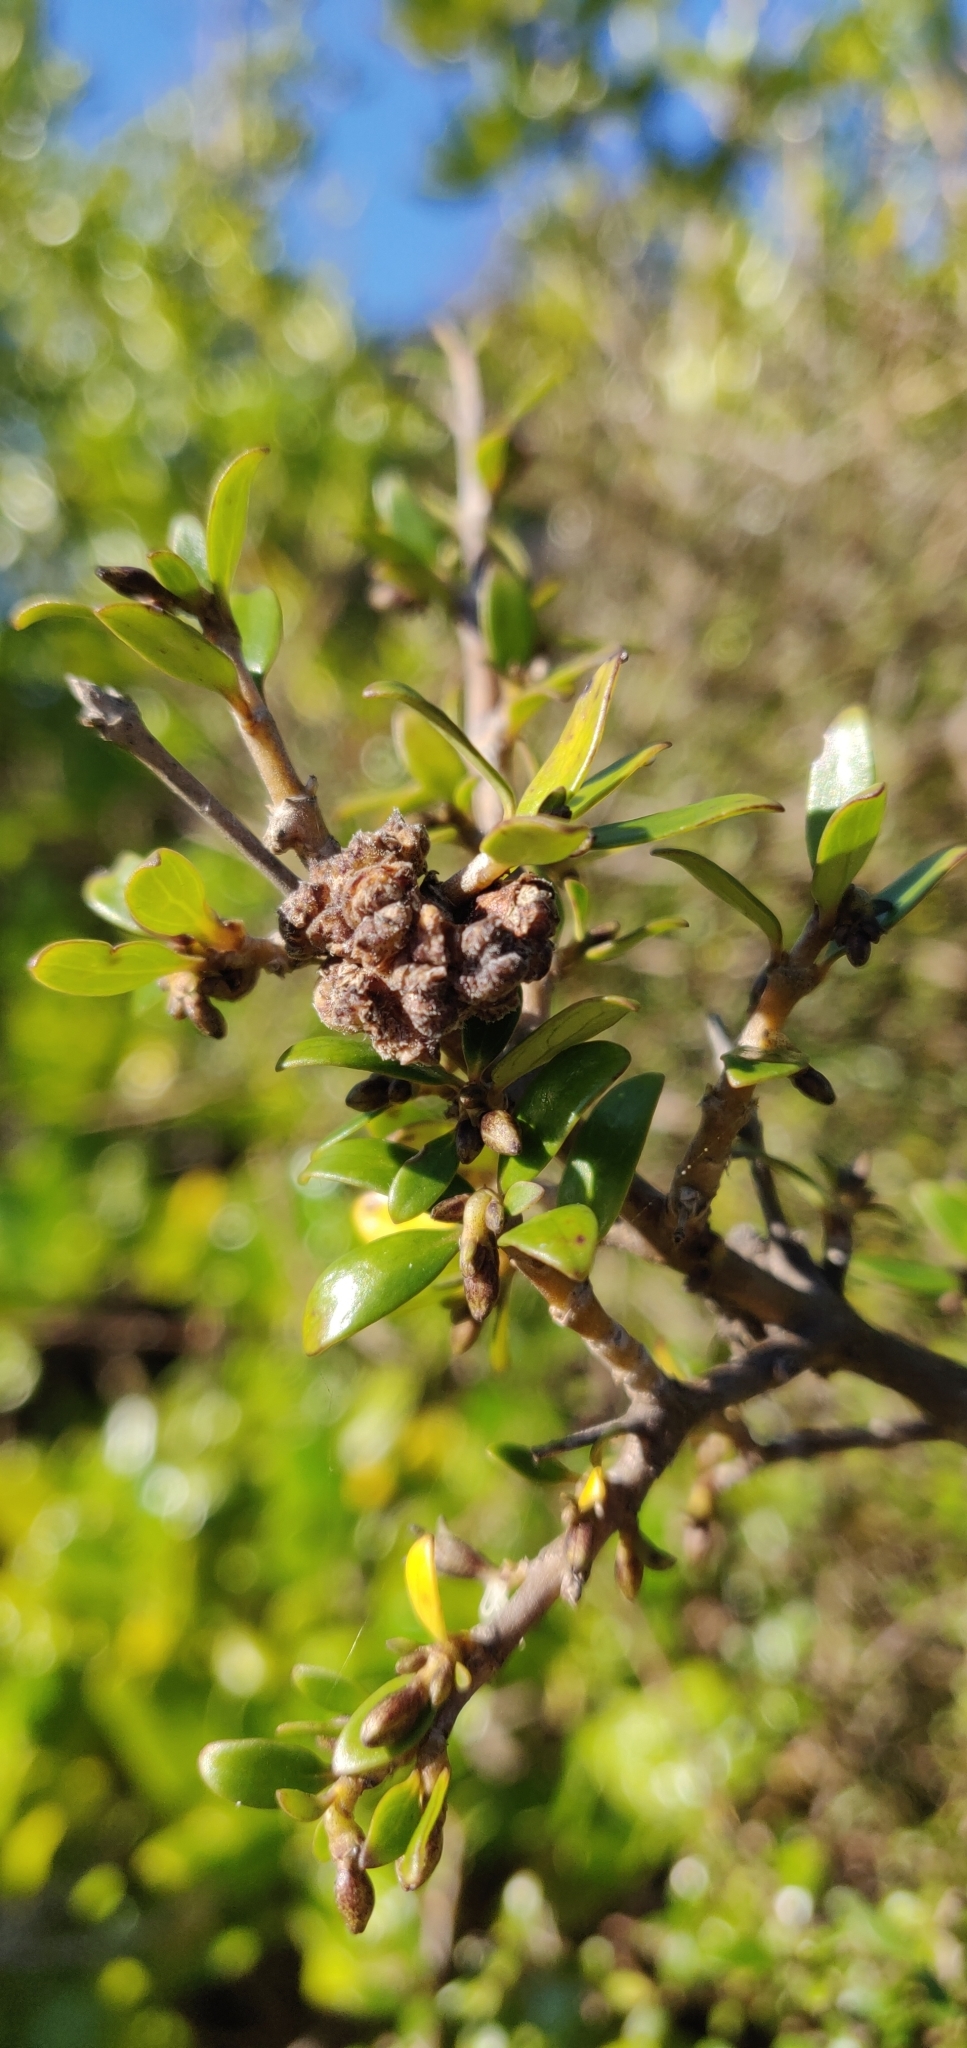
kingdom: Animalia
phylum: Arthropoda
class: Arachnida
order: Trombidiformes
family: Eriophyidae
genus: Acalitus
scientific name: Acalitus
